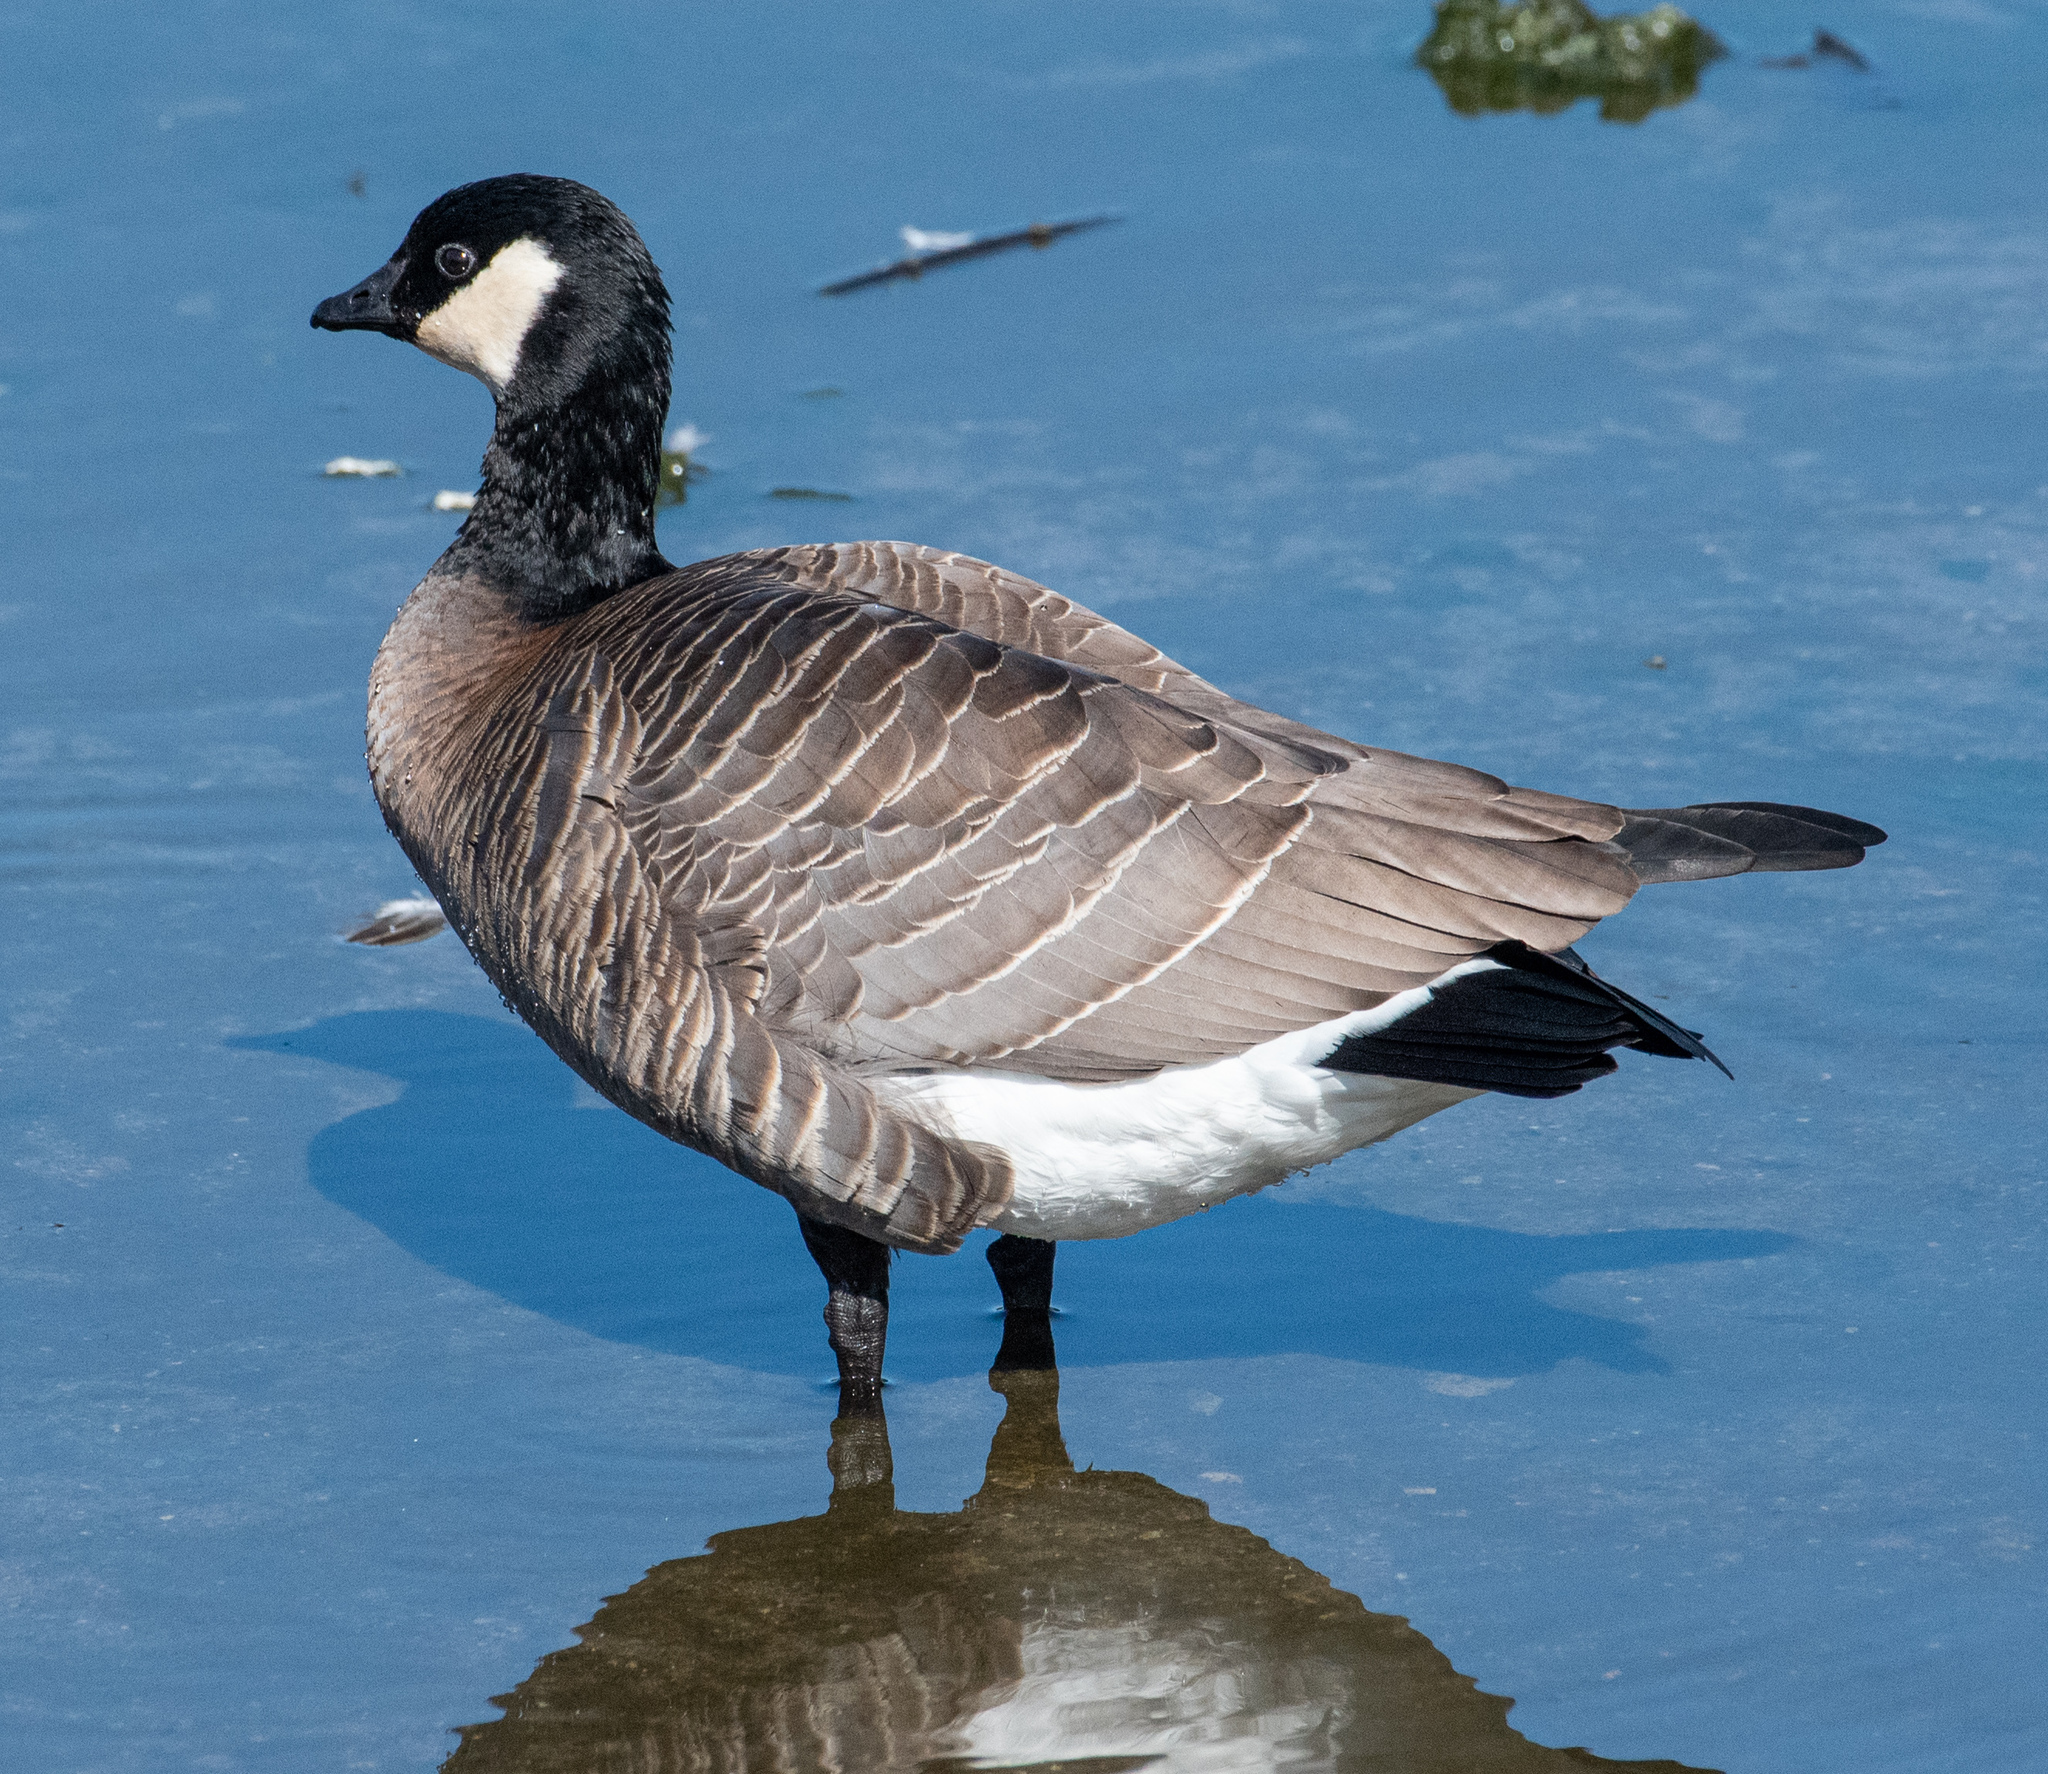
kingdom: Animalia
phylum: Chordata
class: Aves
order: Anseriformes
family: Anatidae
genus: Branta
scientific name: Branta hutchinsii
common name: Cackling goose
